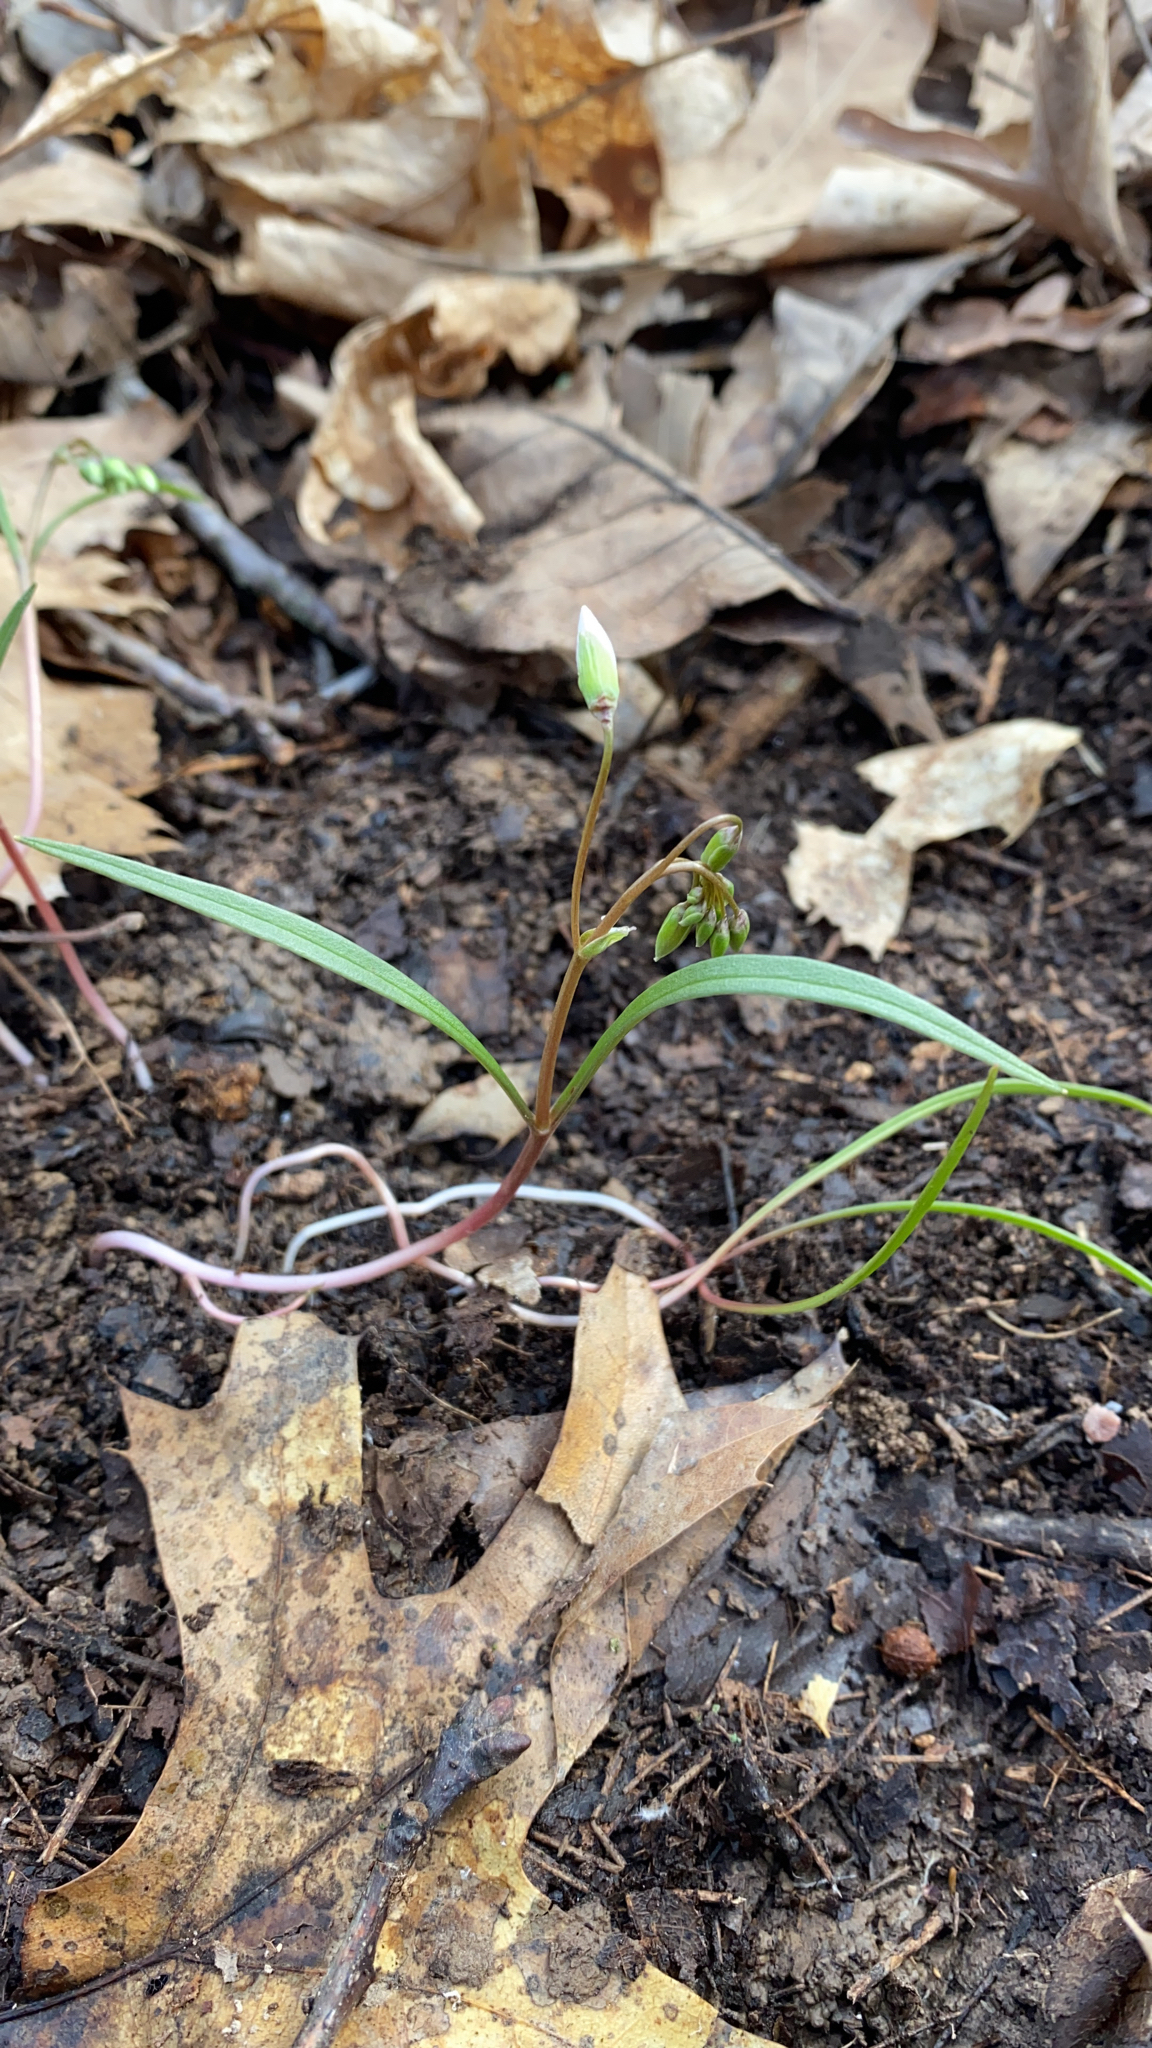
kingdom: Plantae
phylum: Tracheophyta
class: Magnoliopsida
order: Caryophyllales
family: Montiaceae
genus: Claytonia
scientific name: Claytonia virginica
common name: Virginia springbeauty
